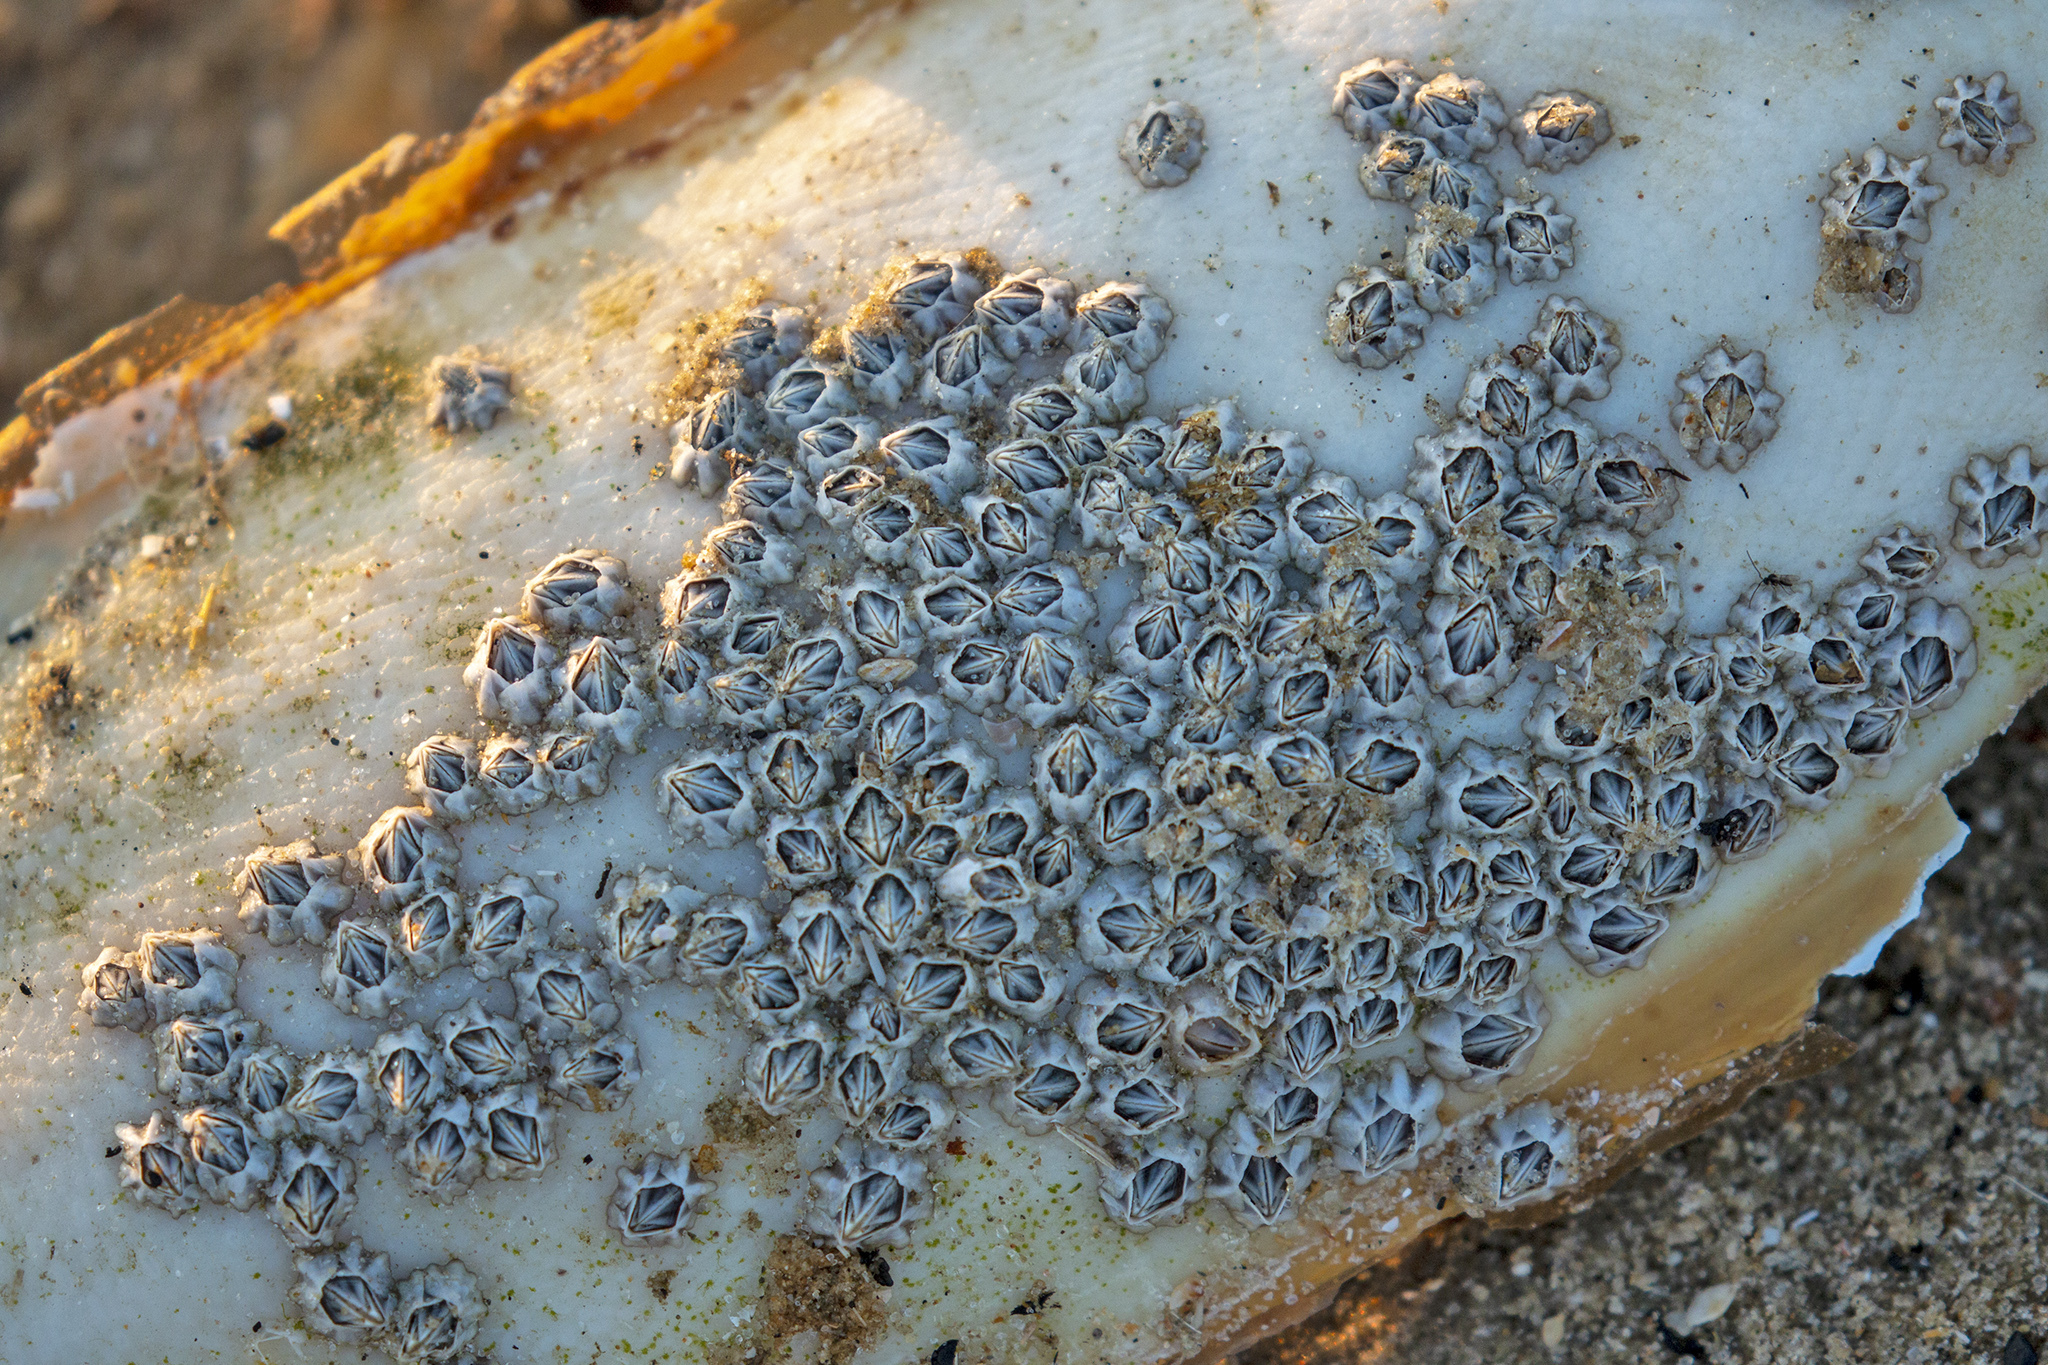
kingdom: Animalia
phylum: Arthropoda
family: Elminiidae
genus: Austrominius
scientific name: Austrominius modestus
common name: Australasian barnacle
